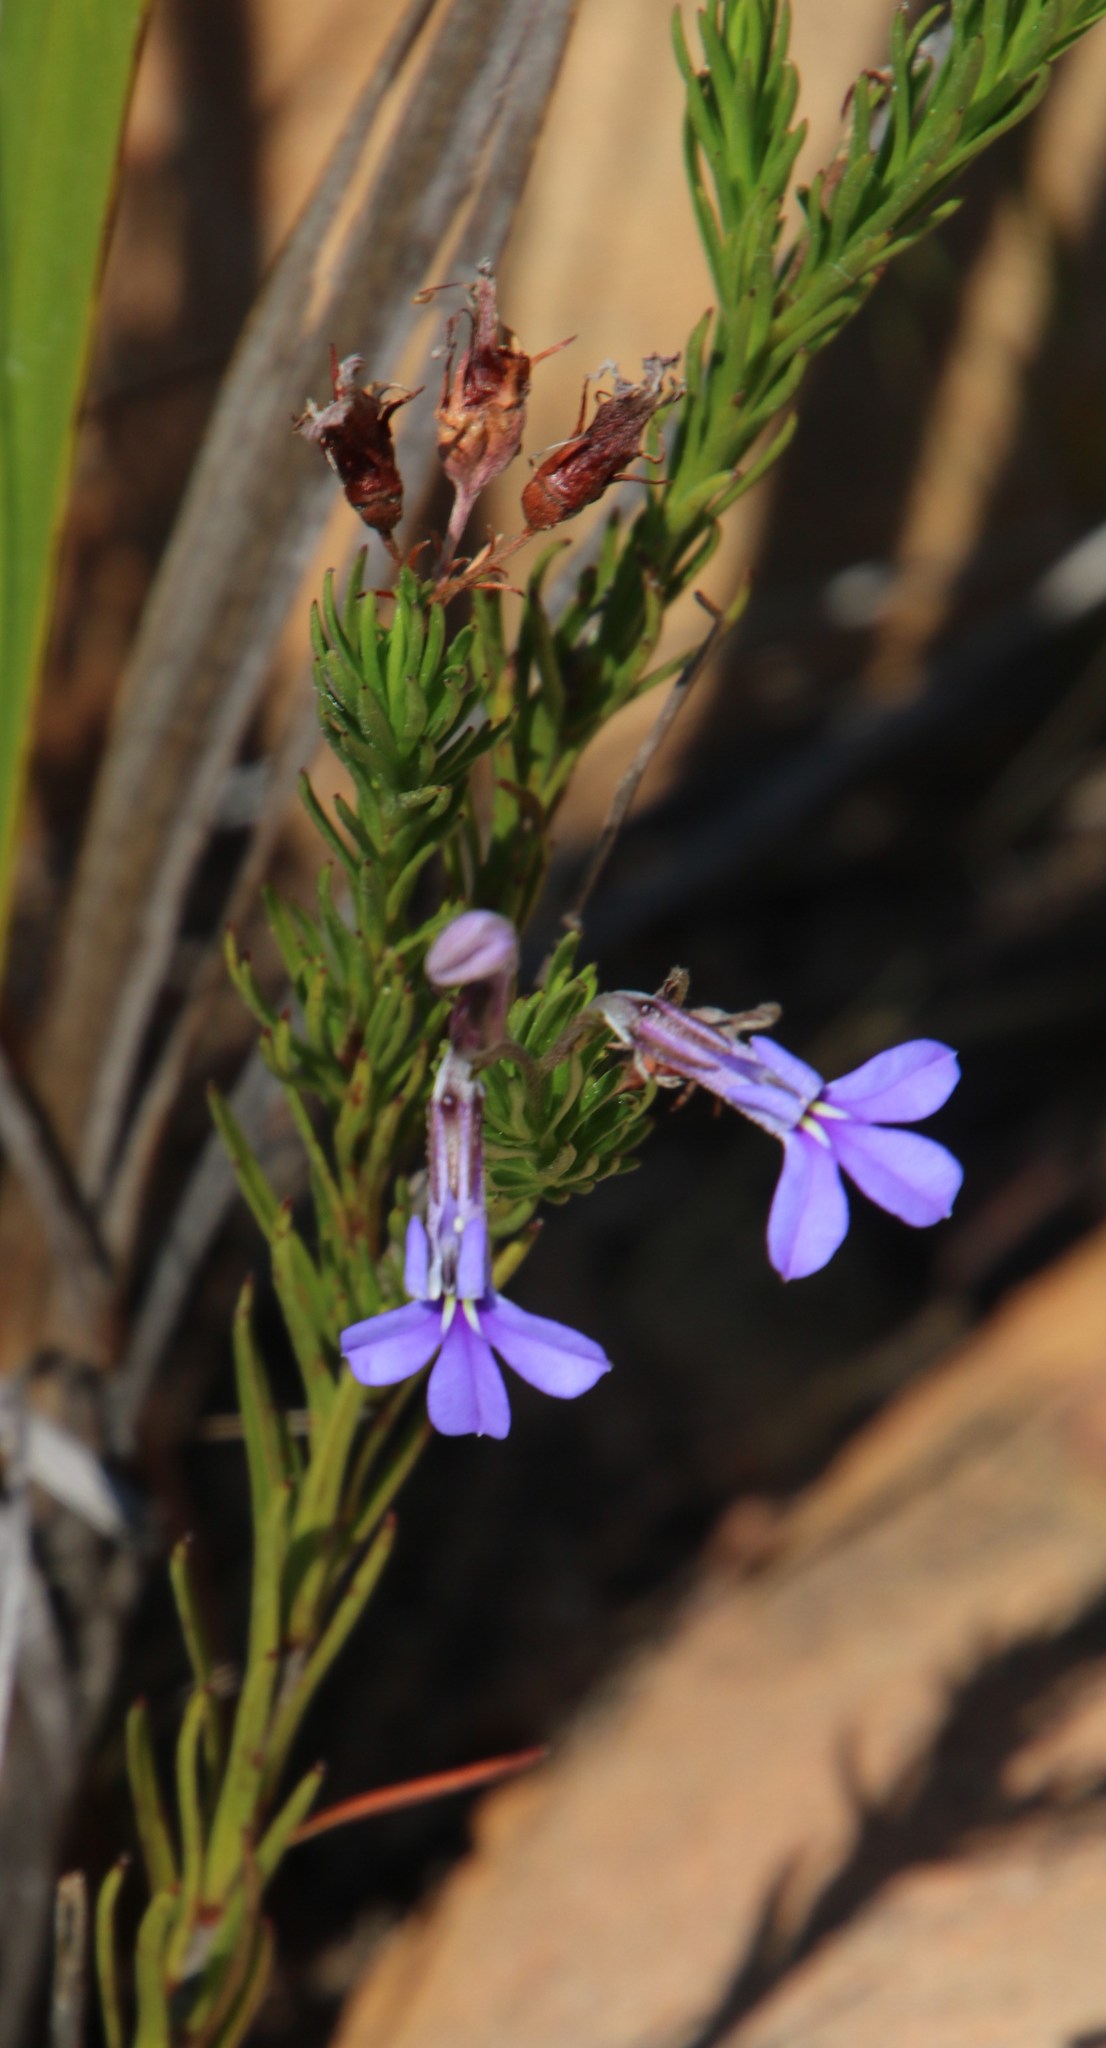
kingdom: Plantae
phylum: Tracheophyta
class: Magnoliopsida
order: Asterales
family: Campanulaceae
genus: Lobelia
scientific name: Lobelia pinifolia
